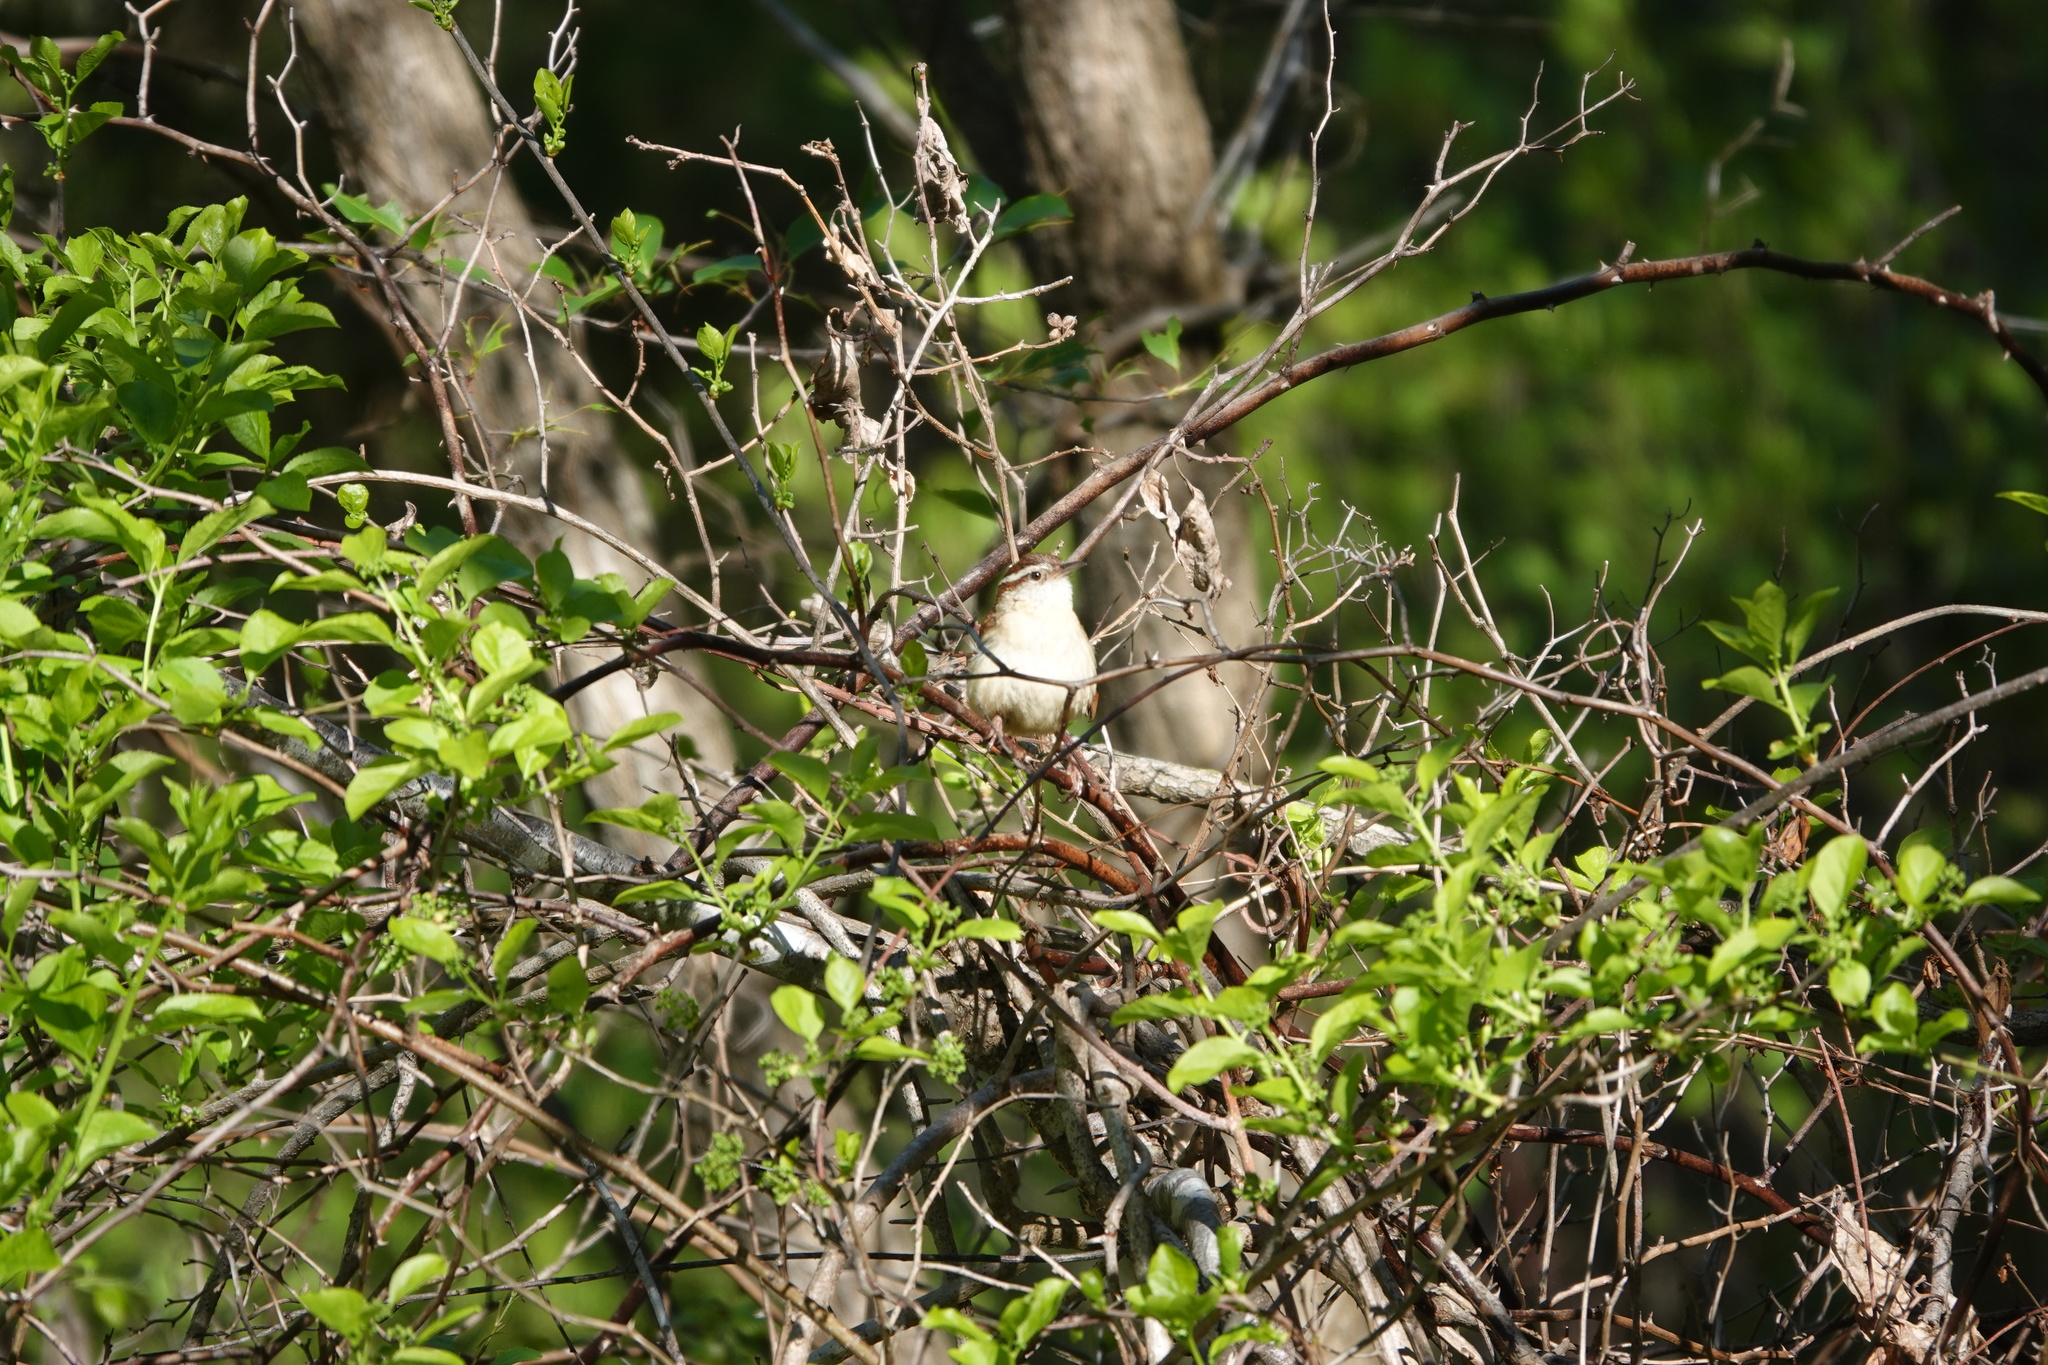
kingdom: Animalia
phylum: Chordata
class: Aves
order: Passeriformes
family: Troglodytidae
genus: Thryothorus
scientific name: Thryothorus ludovicianus
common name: Carolina wren
